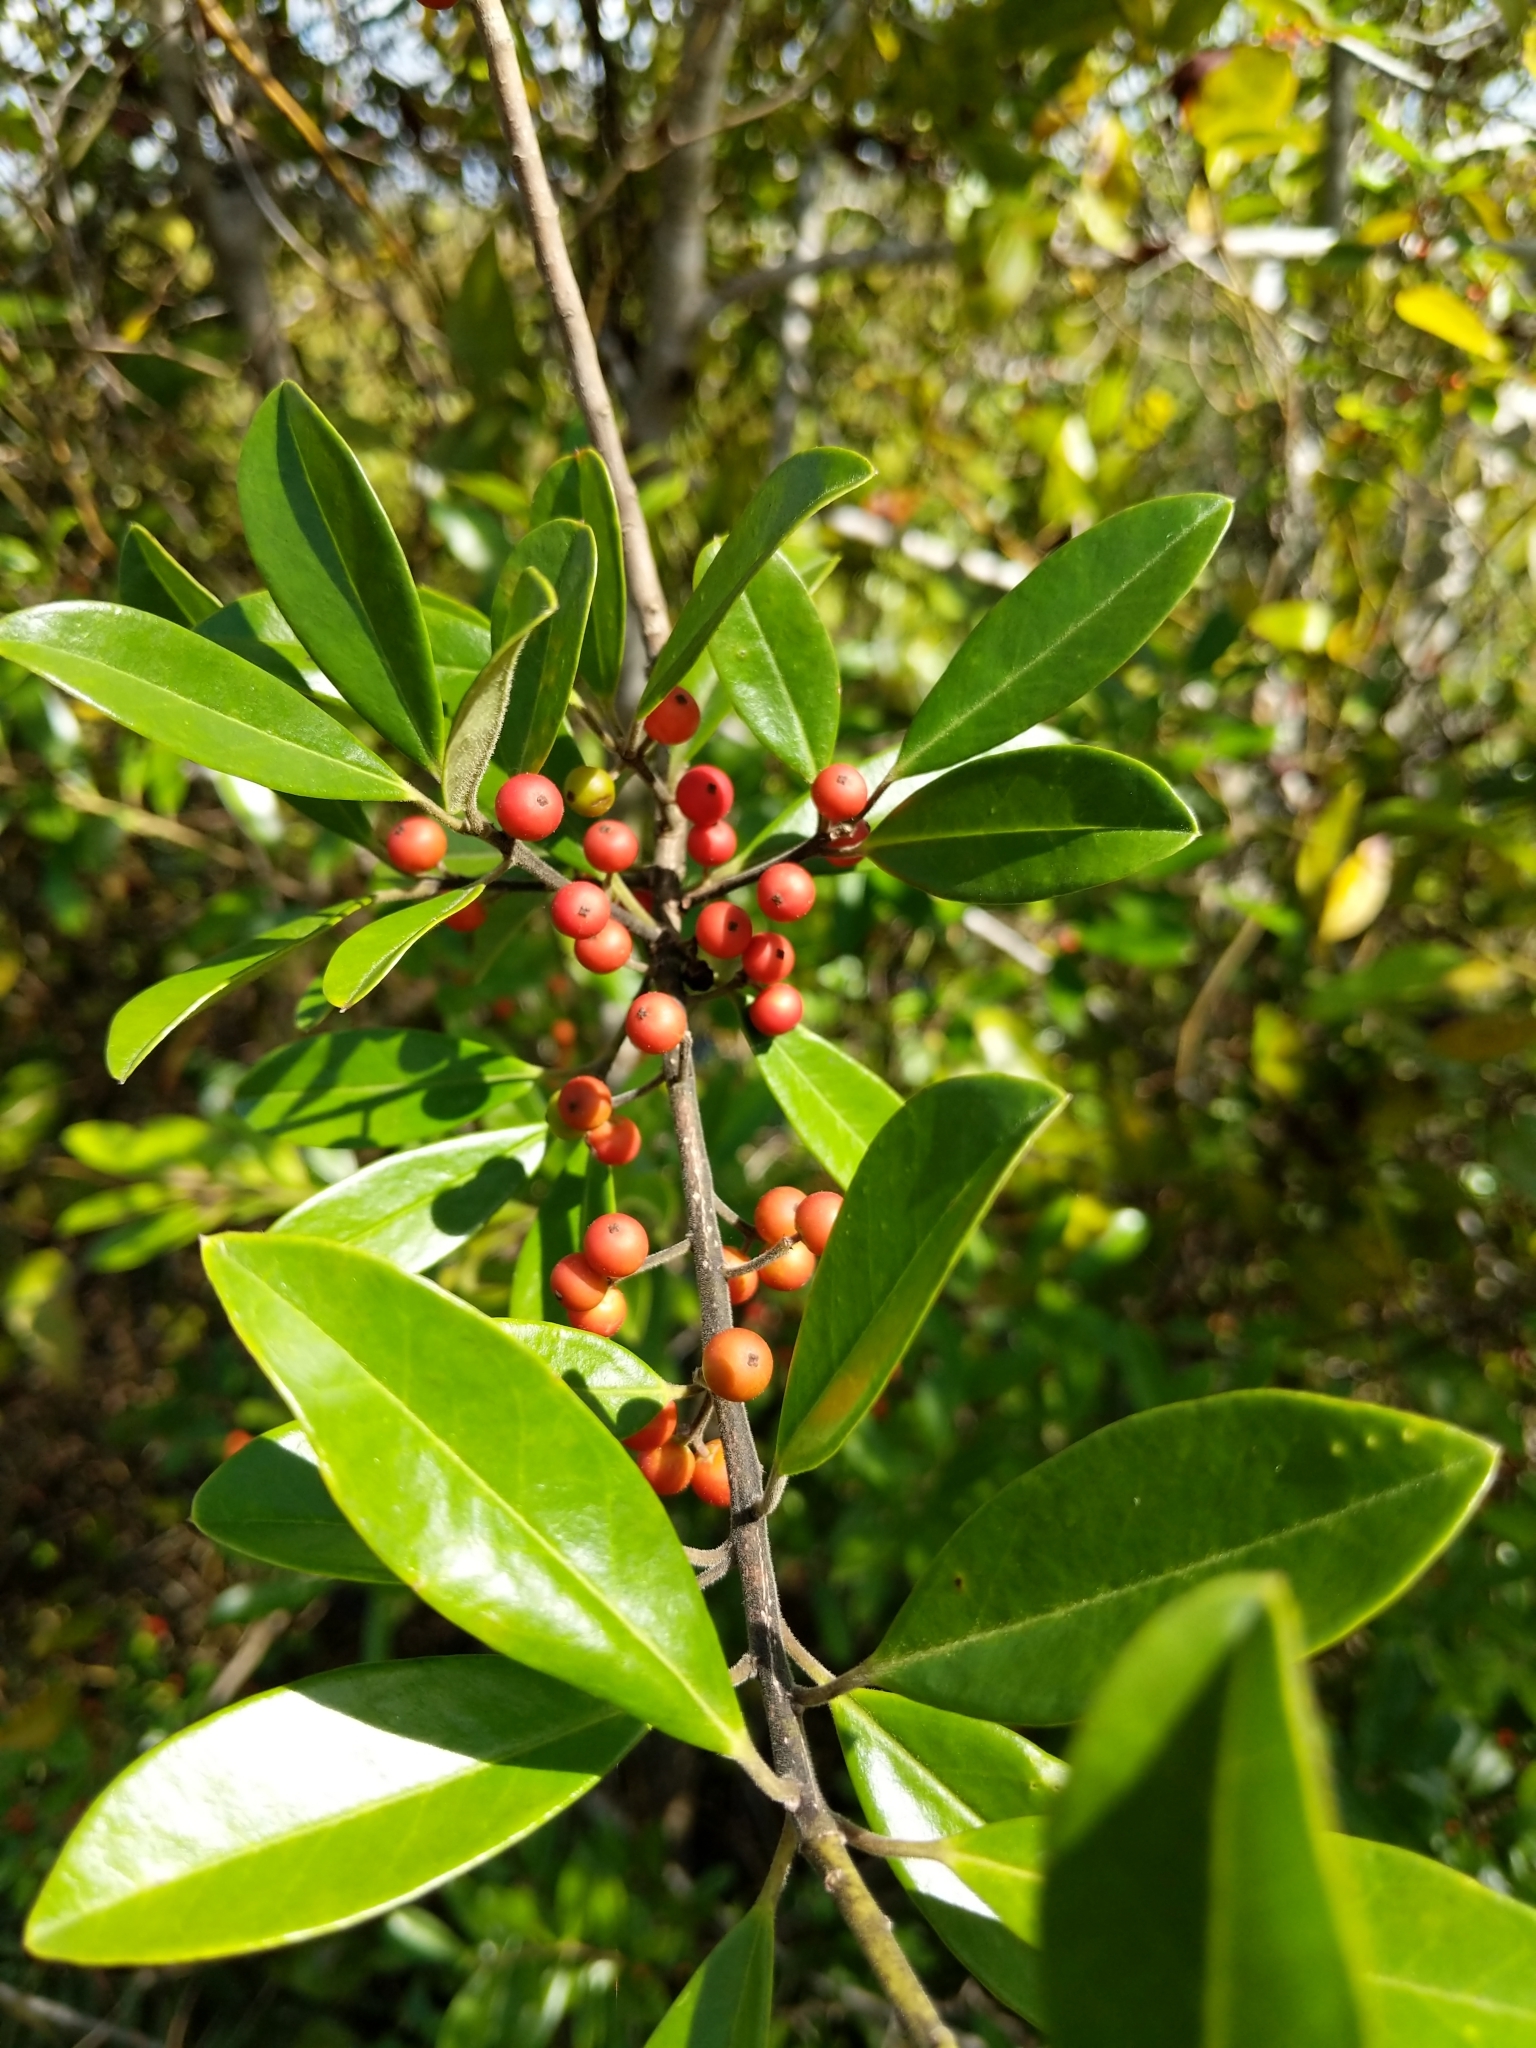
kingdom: Plantae
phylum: Tracheophyta
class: Magnoliopsida
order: Aquifoliales
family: Aquifoliaceae
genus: Ilex
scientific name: Ilex cassine
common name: Dahoon
